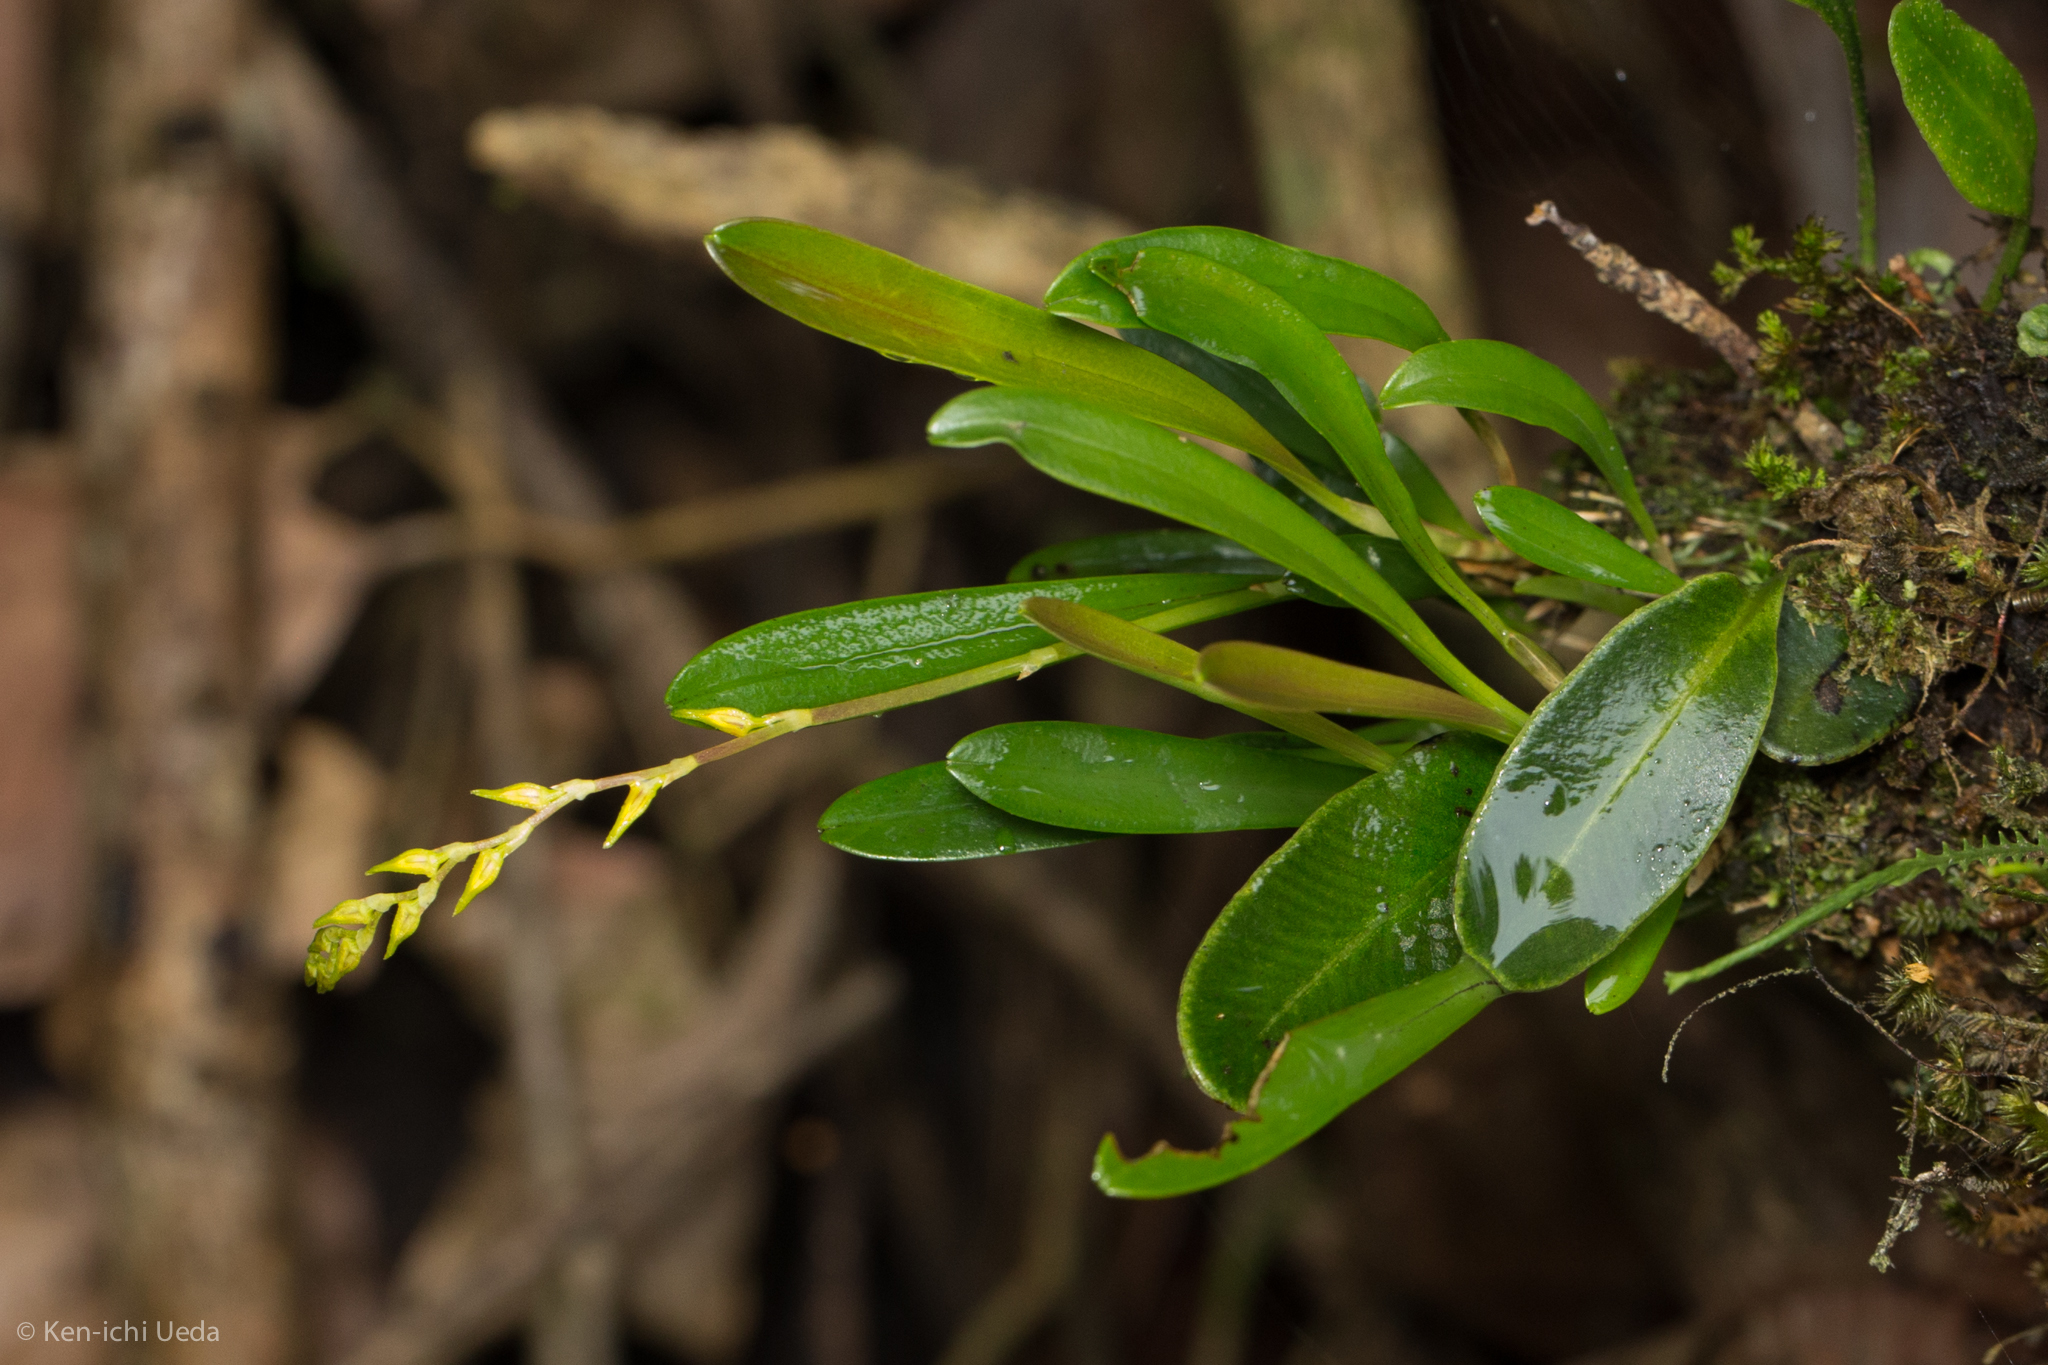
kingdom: Plantae
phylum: Tracheophyta
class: Liliopsida
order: Asparagales
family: Orchidaceae
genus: Specklinia
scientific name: Specklinia costaricensis
